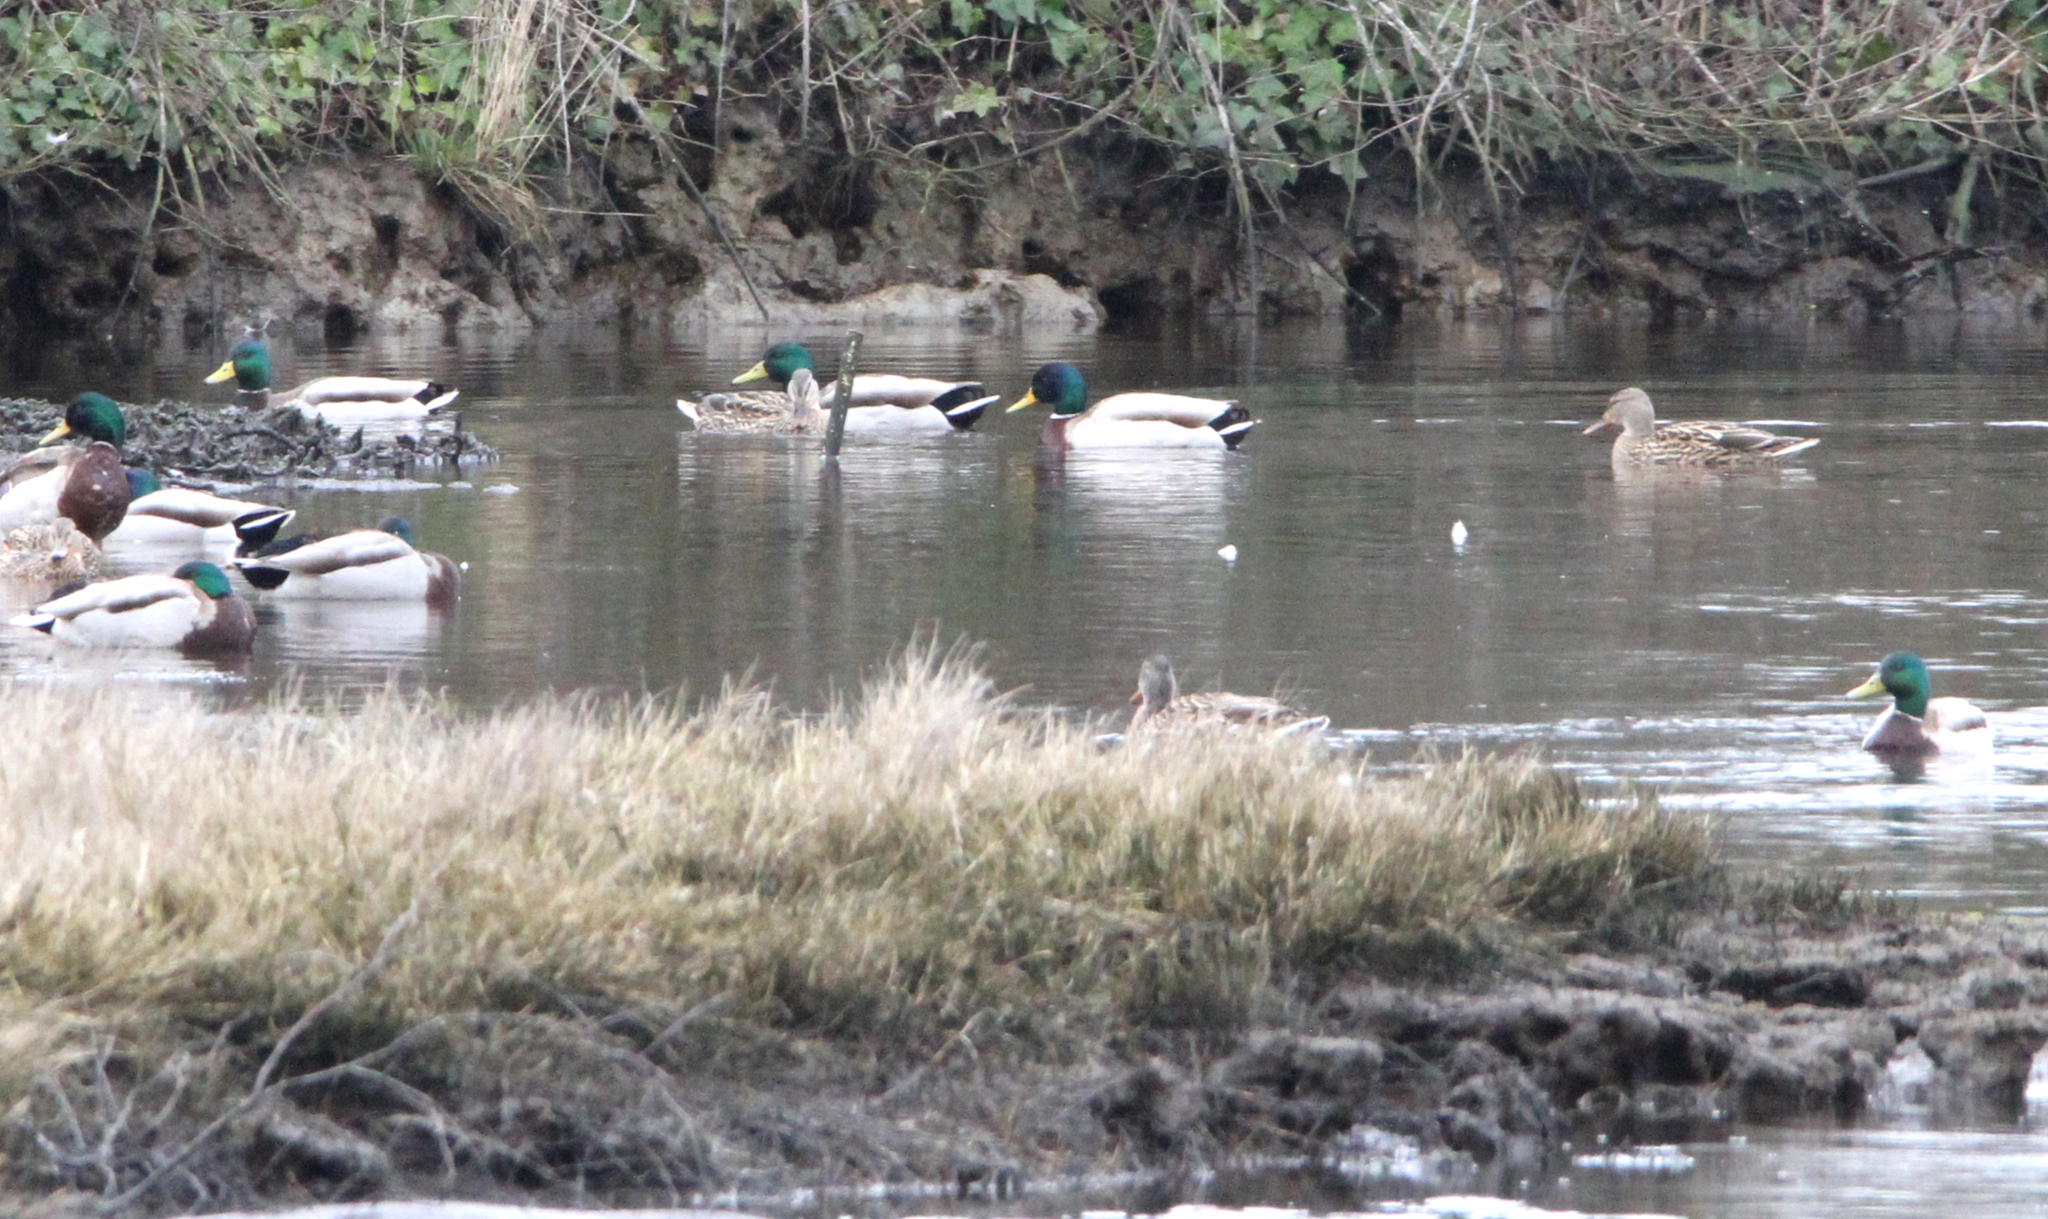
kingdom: Animalia
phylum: Chordata
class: Aves
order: Anseriformes
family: Anatidae
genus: Anas
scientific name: Anas platyrhynchos
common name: Mallard
